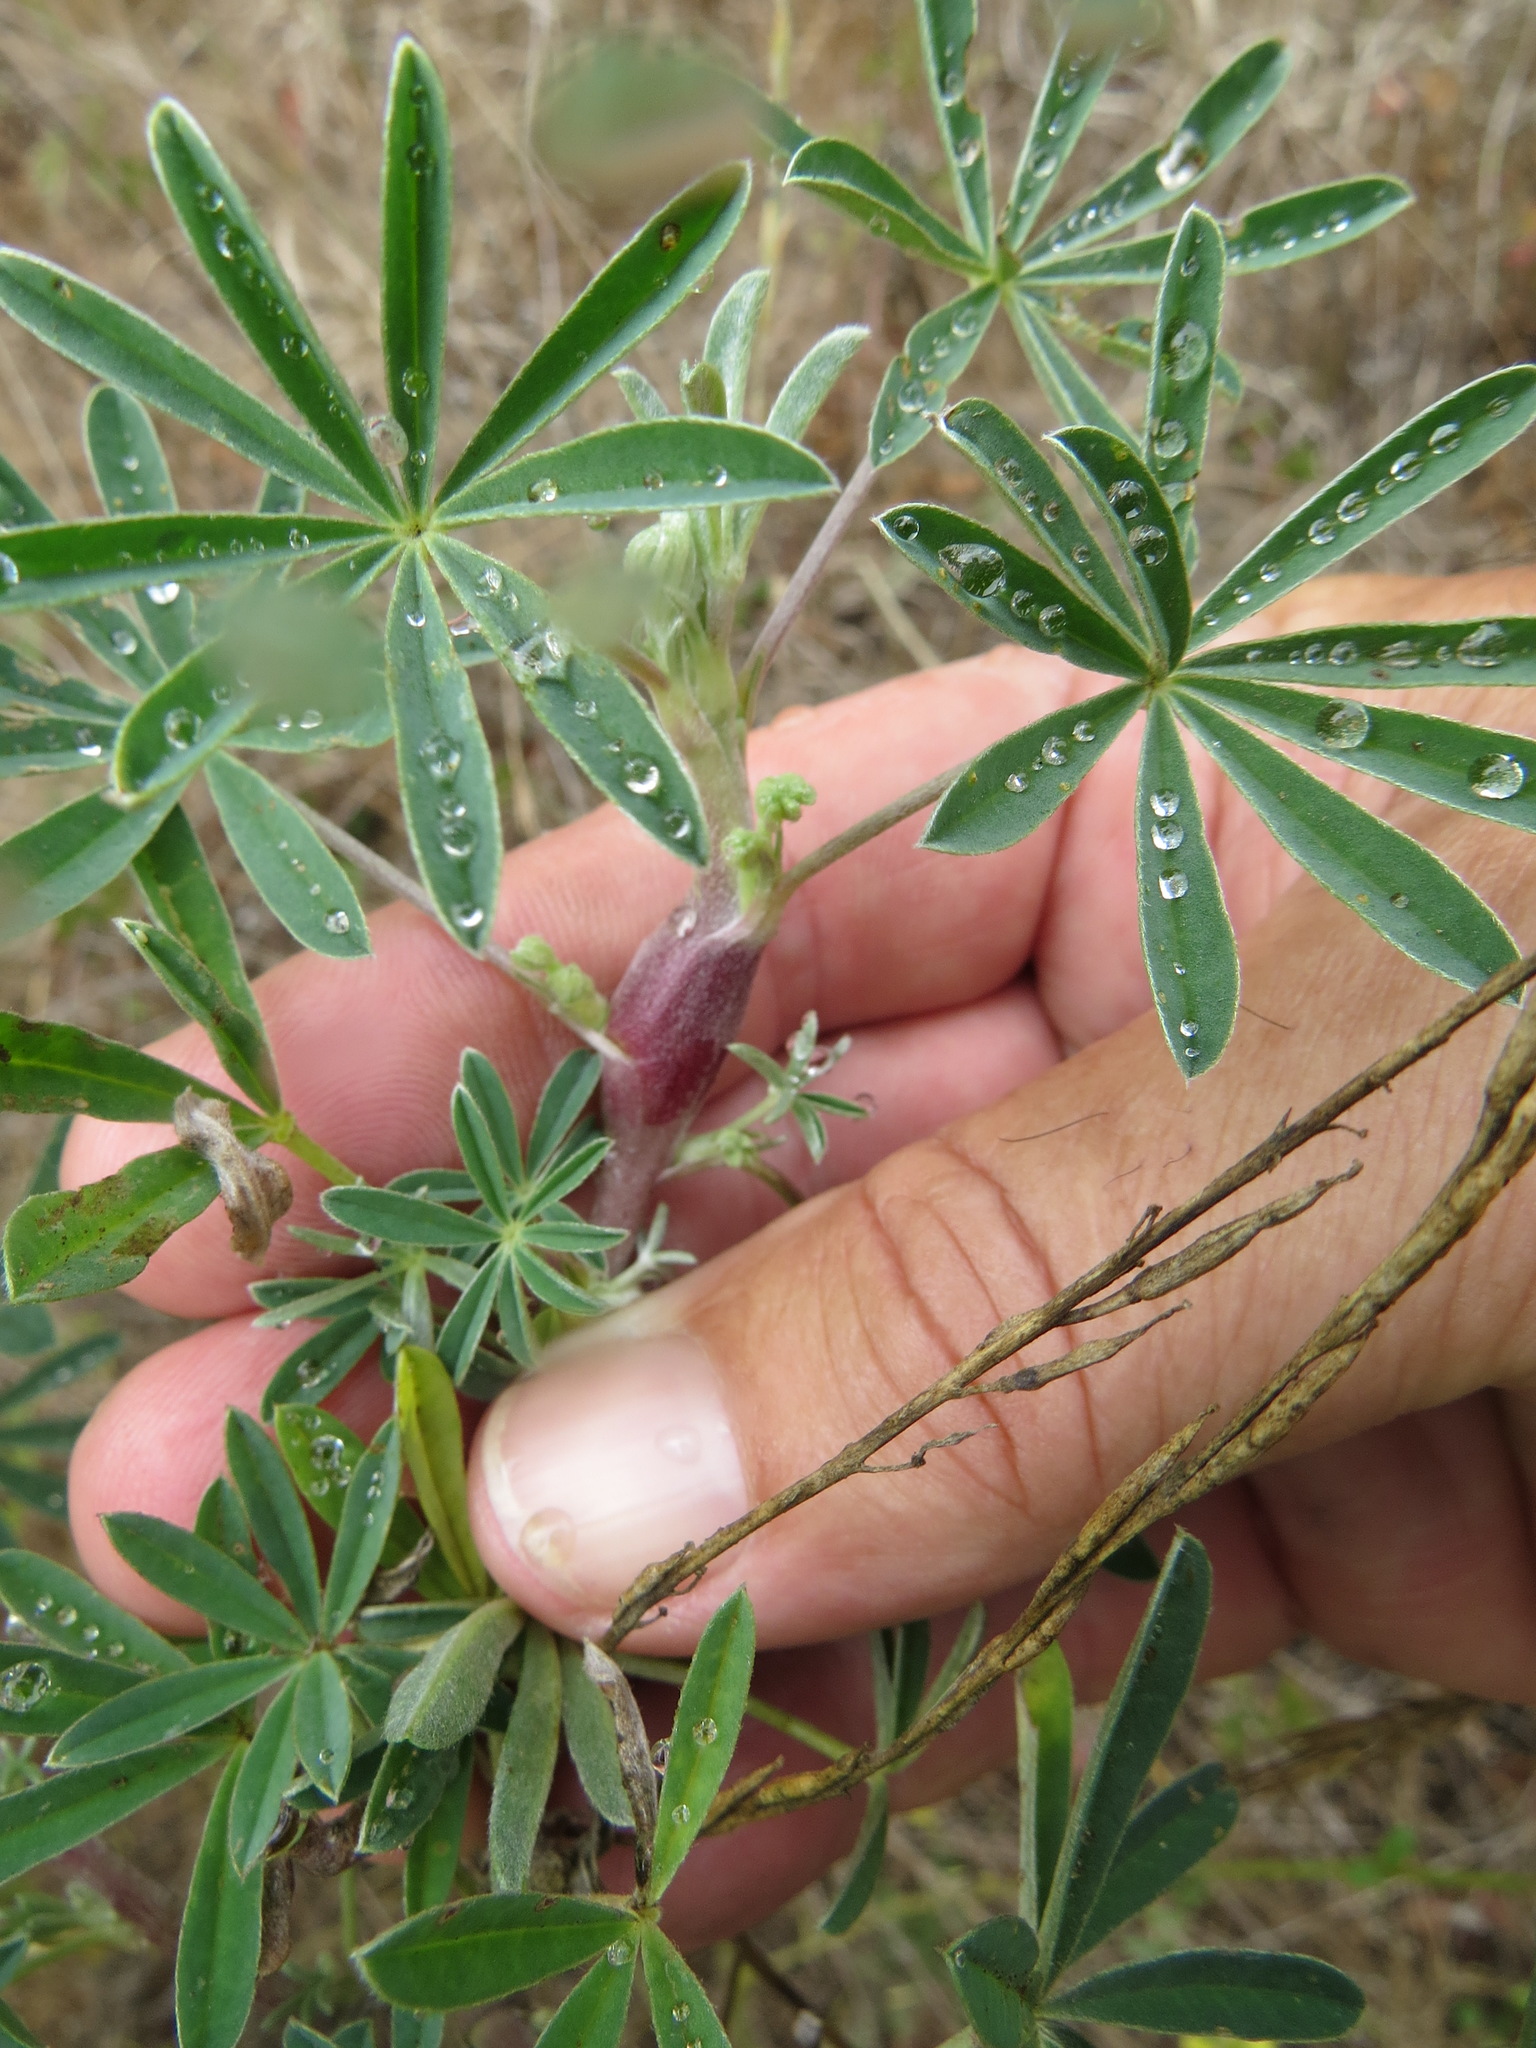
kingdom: Animalia
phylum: Arthropoda
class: Insecta
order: Diptera
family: Cecidomyiidae
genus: Neolasioptera
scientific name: Neolasioptera lupini
